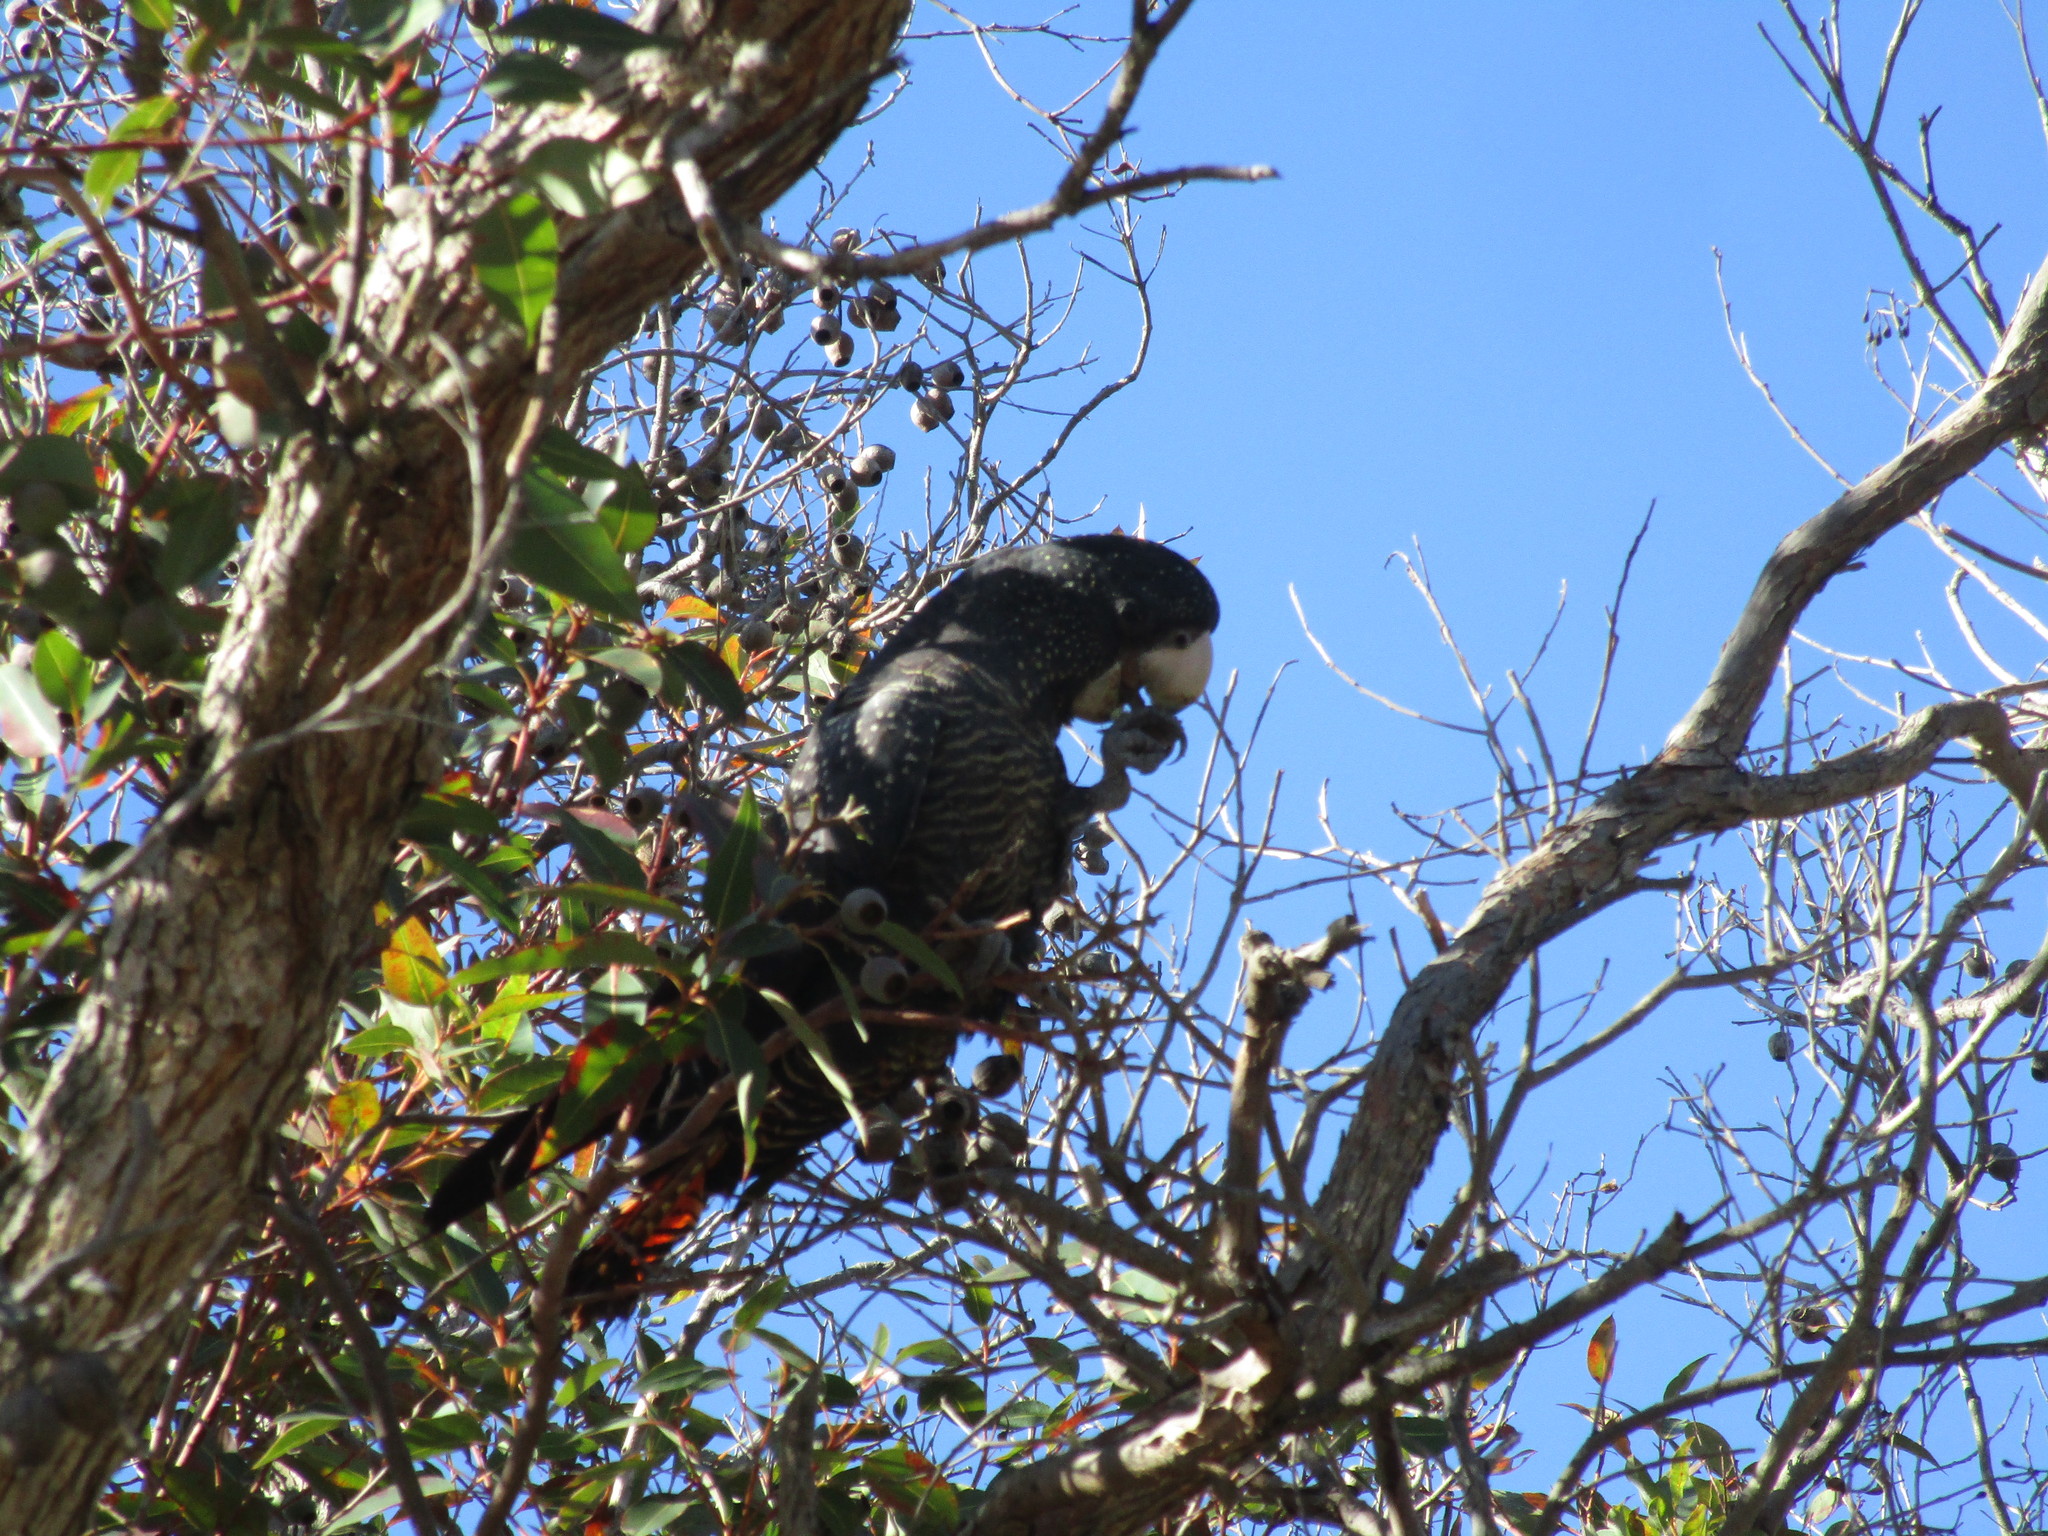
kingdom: Animalia
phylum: Chordata
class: Aves
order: Psittaciformes
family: Psittacidae
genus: Calyptorhynchus
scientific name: Calyptorhynchus banksii
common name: Red-tailed black cockatoo
